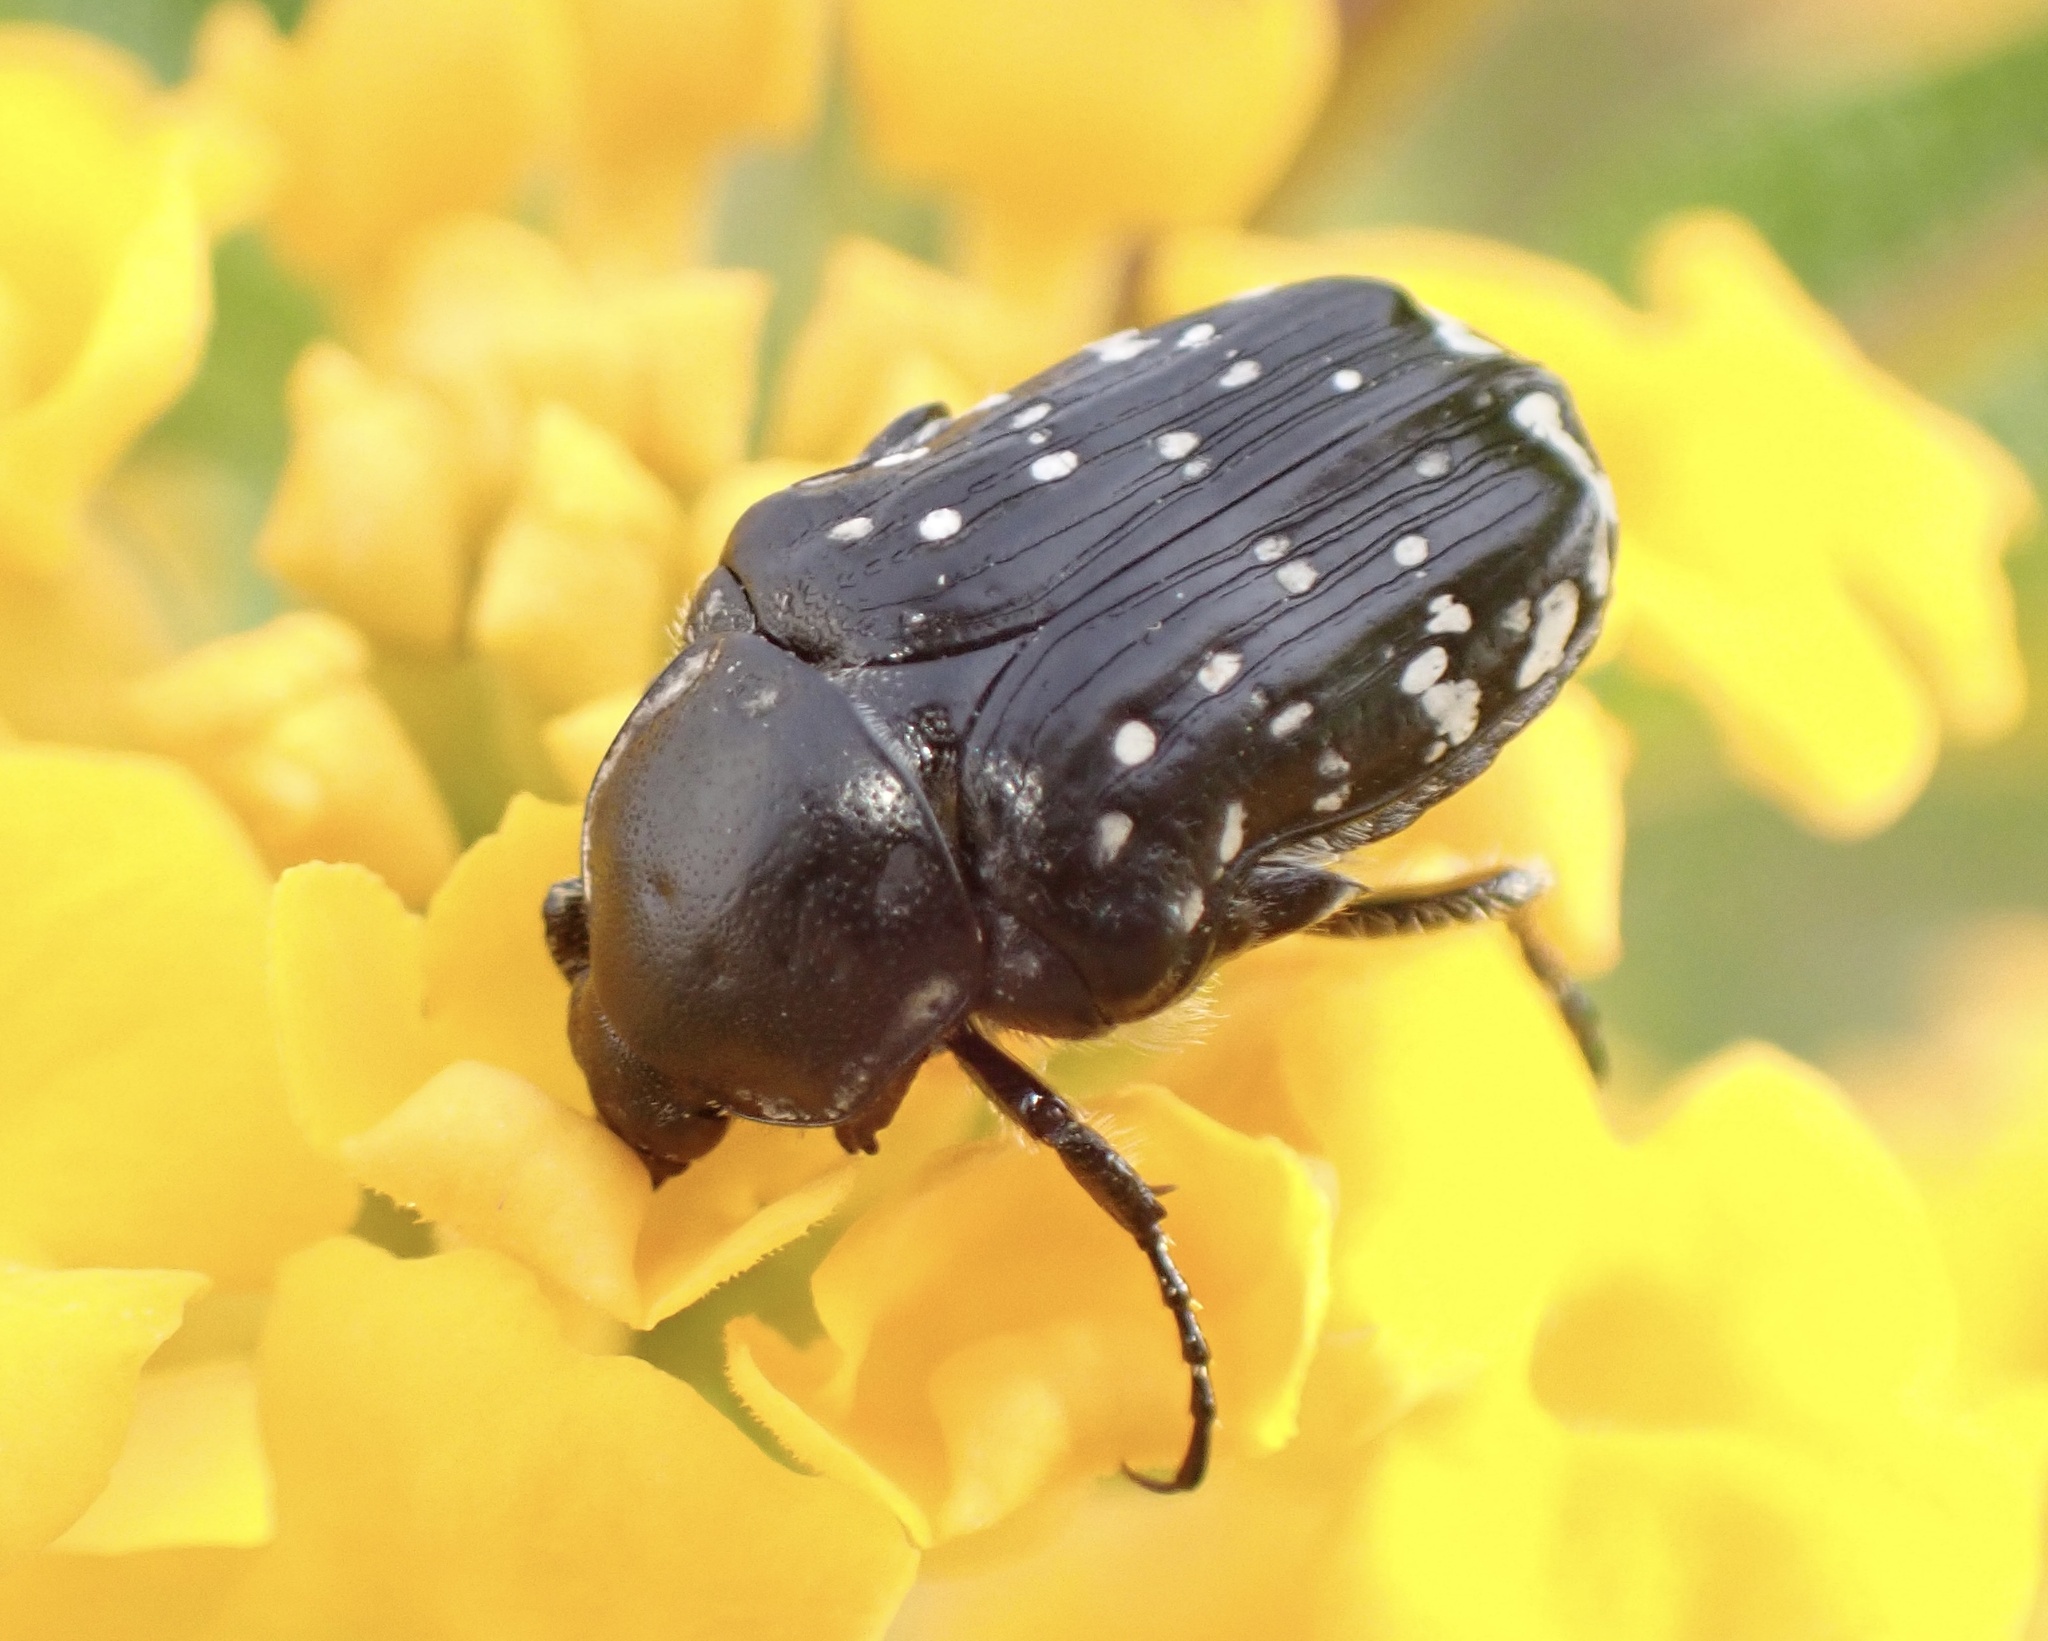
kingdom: Animalia
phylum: Arthropoda
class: Insecta
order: Coleoptera
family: Scarabaeidae
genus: Oxythyrea
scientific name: Oxythyrea cinctella
